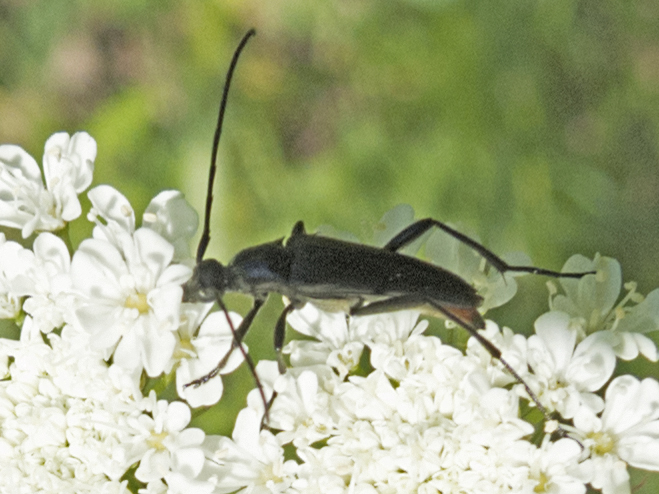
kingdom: Animalia
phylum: Arthropoda
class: Insecta
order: Coleoptera
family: Cerambycidae
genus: Stenurella
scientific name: Stenurella nigra
